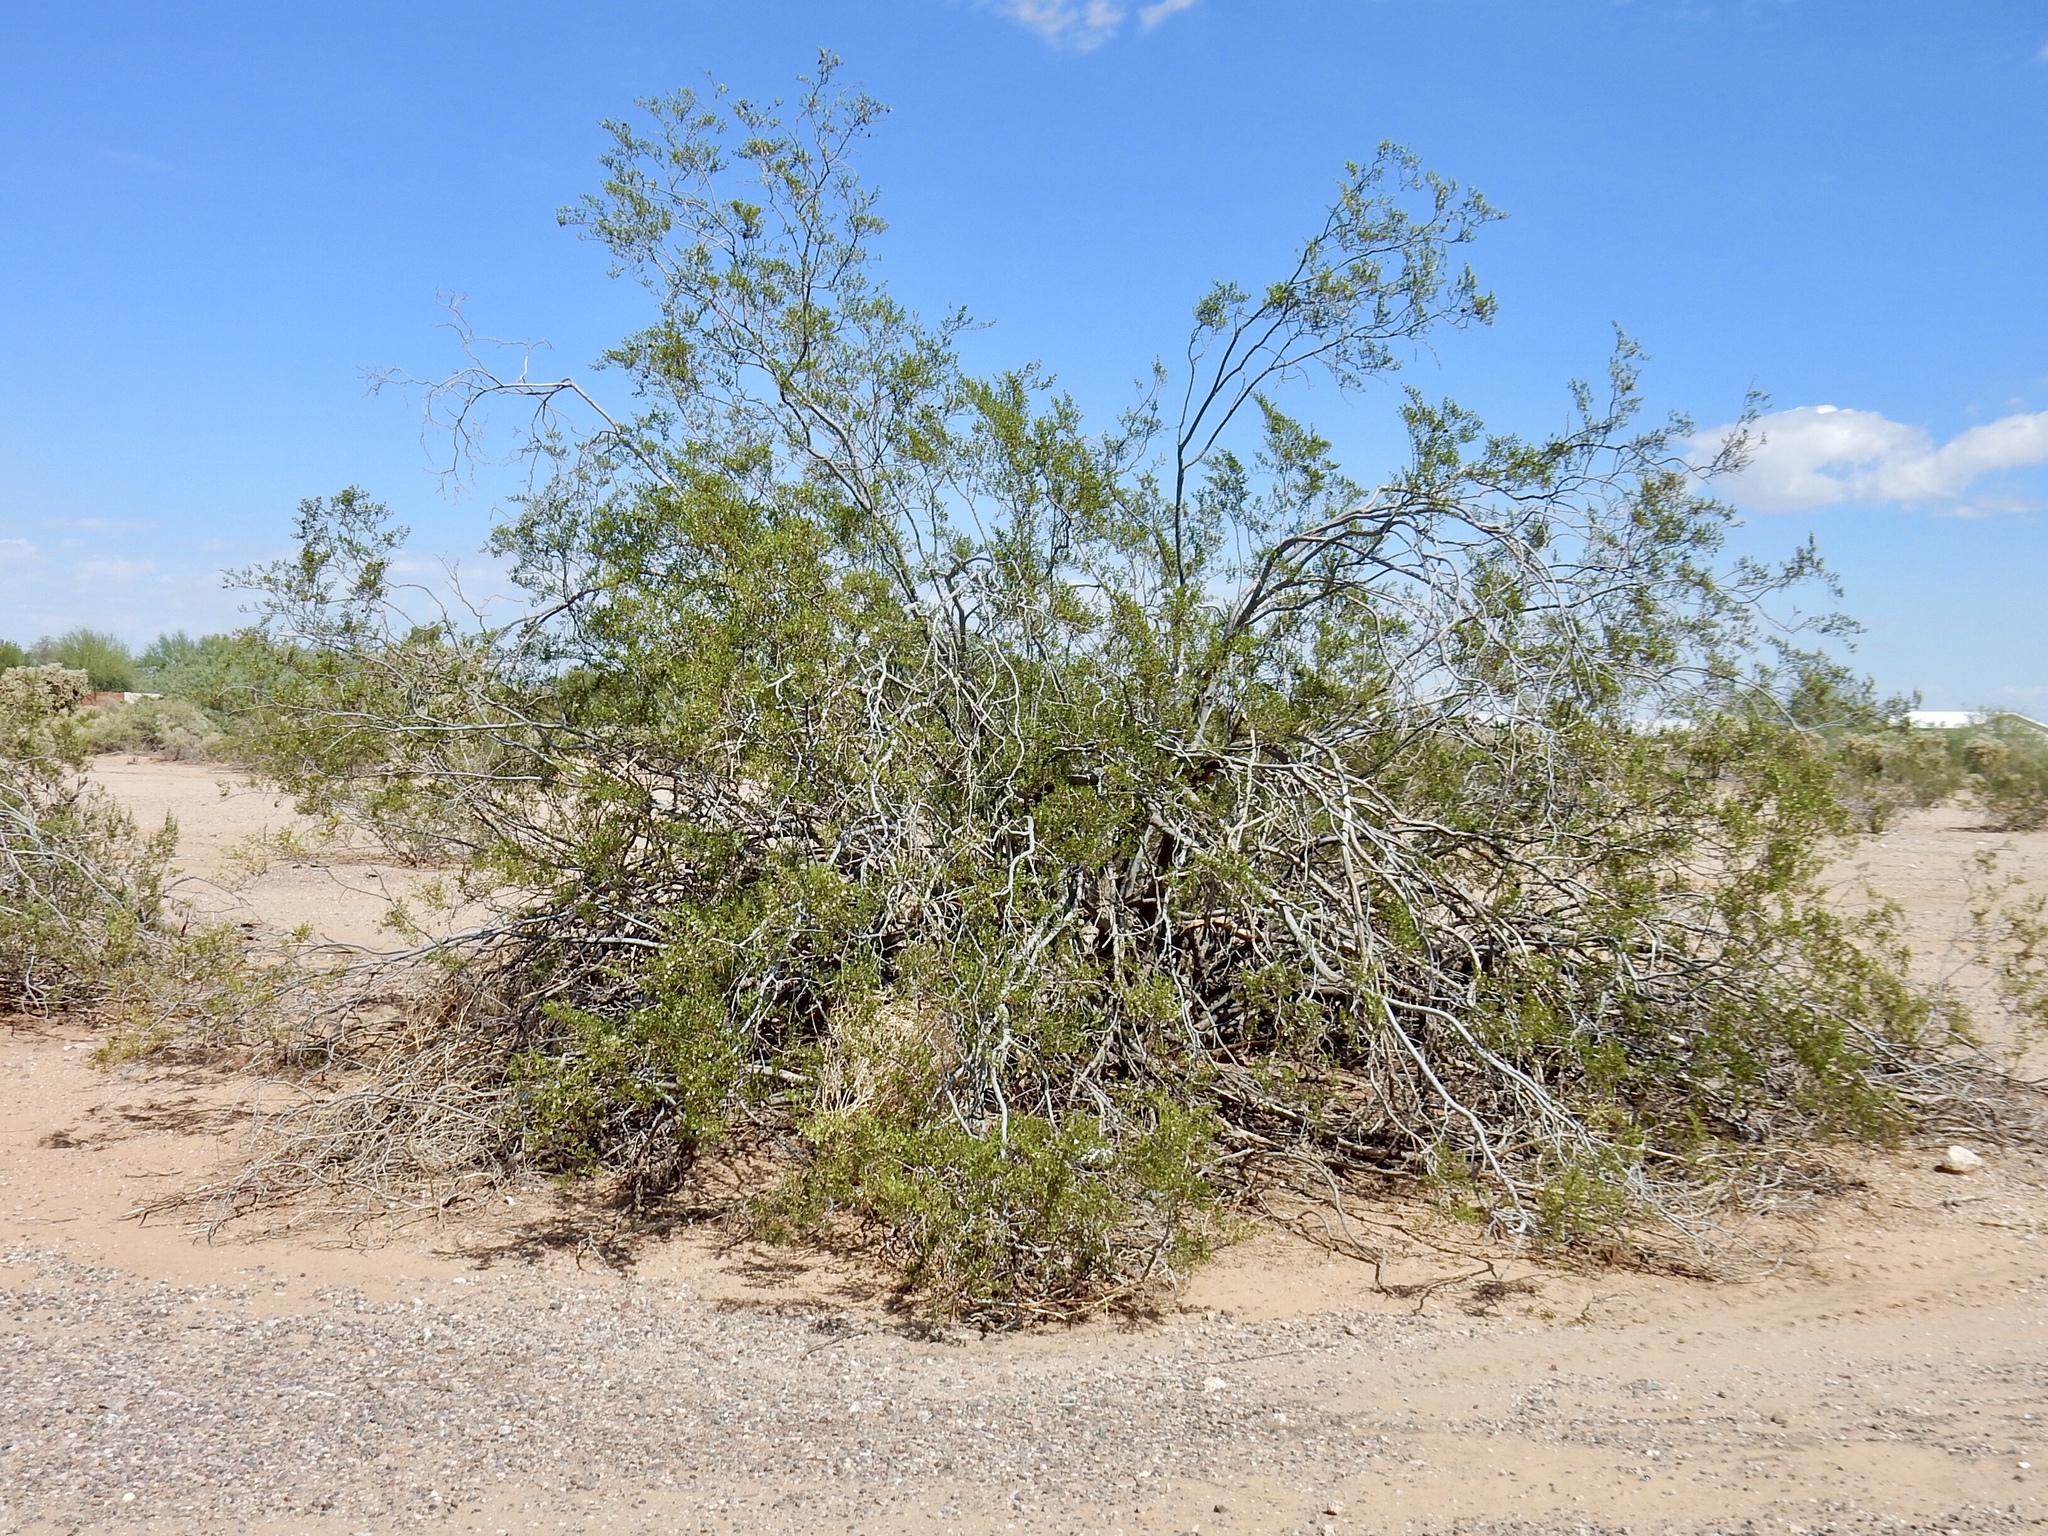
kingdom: Plantae
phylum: Tracheophyta
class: Magnoliopsida
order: Zygophyllales
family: Zygophyllaceae
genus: Larrea
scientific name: Larrea tridentata
